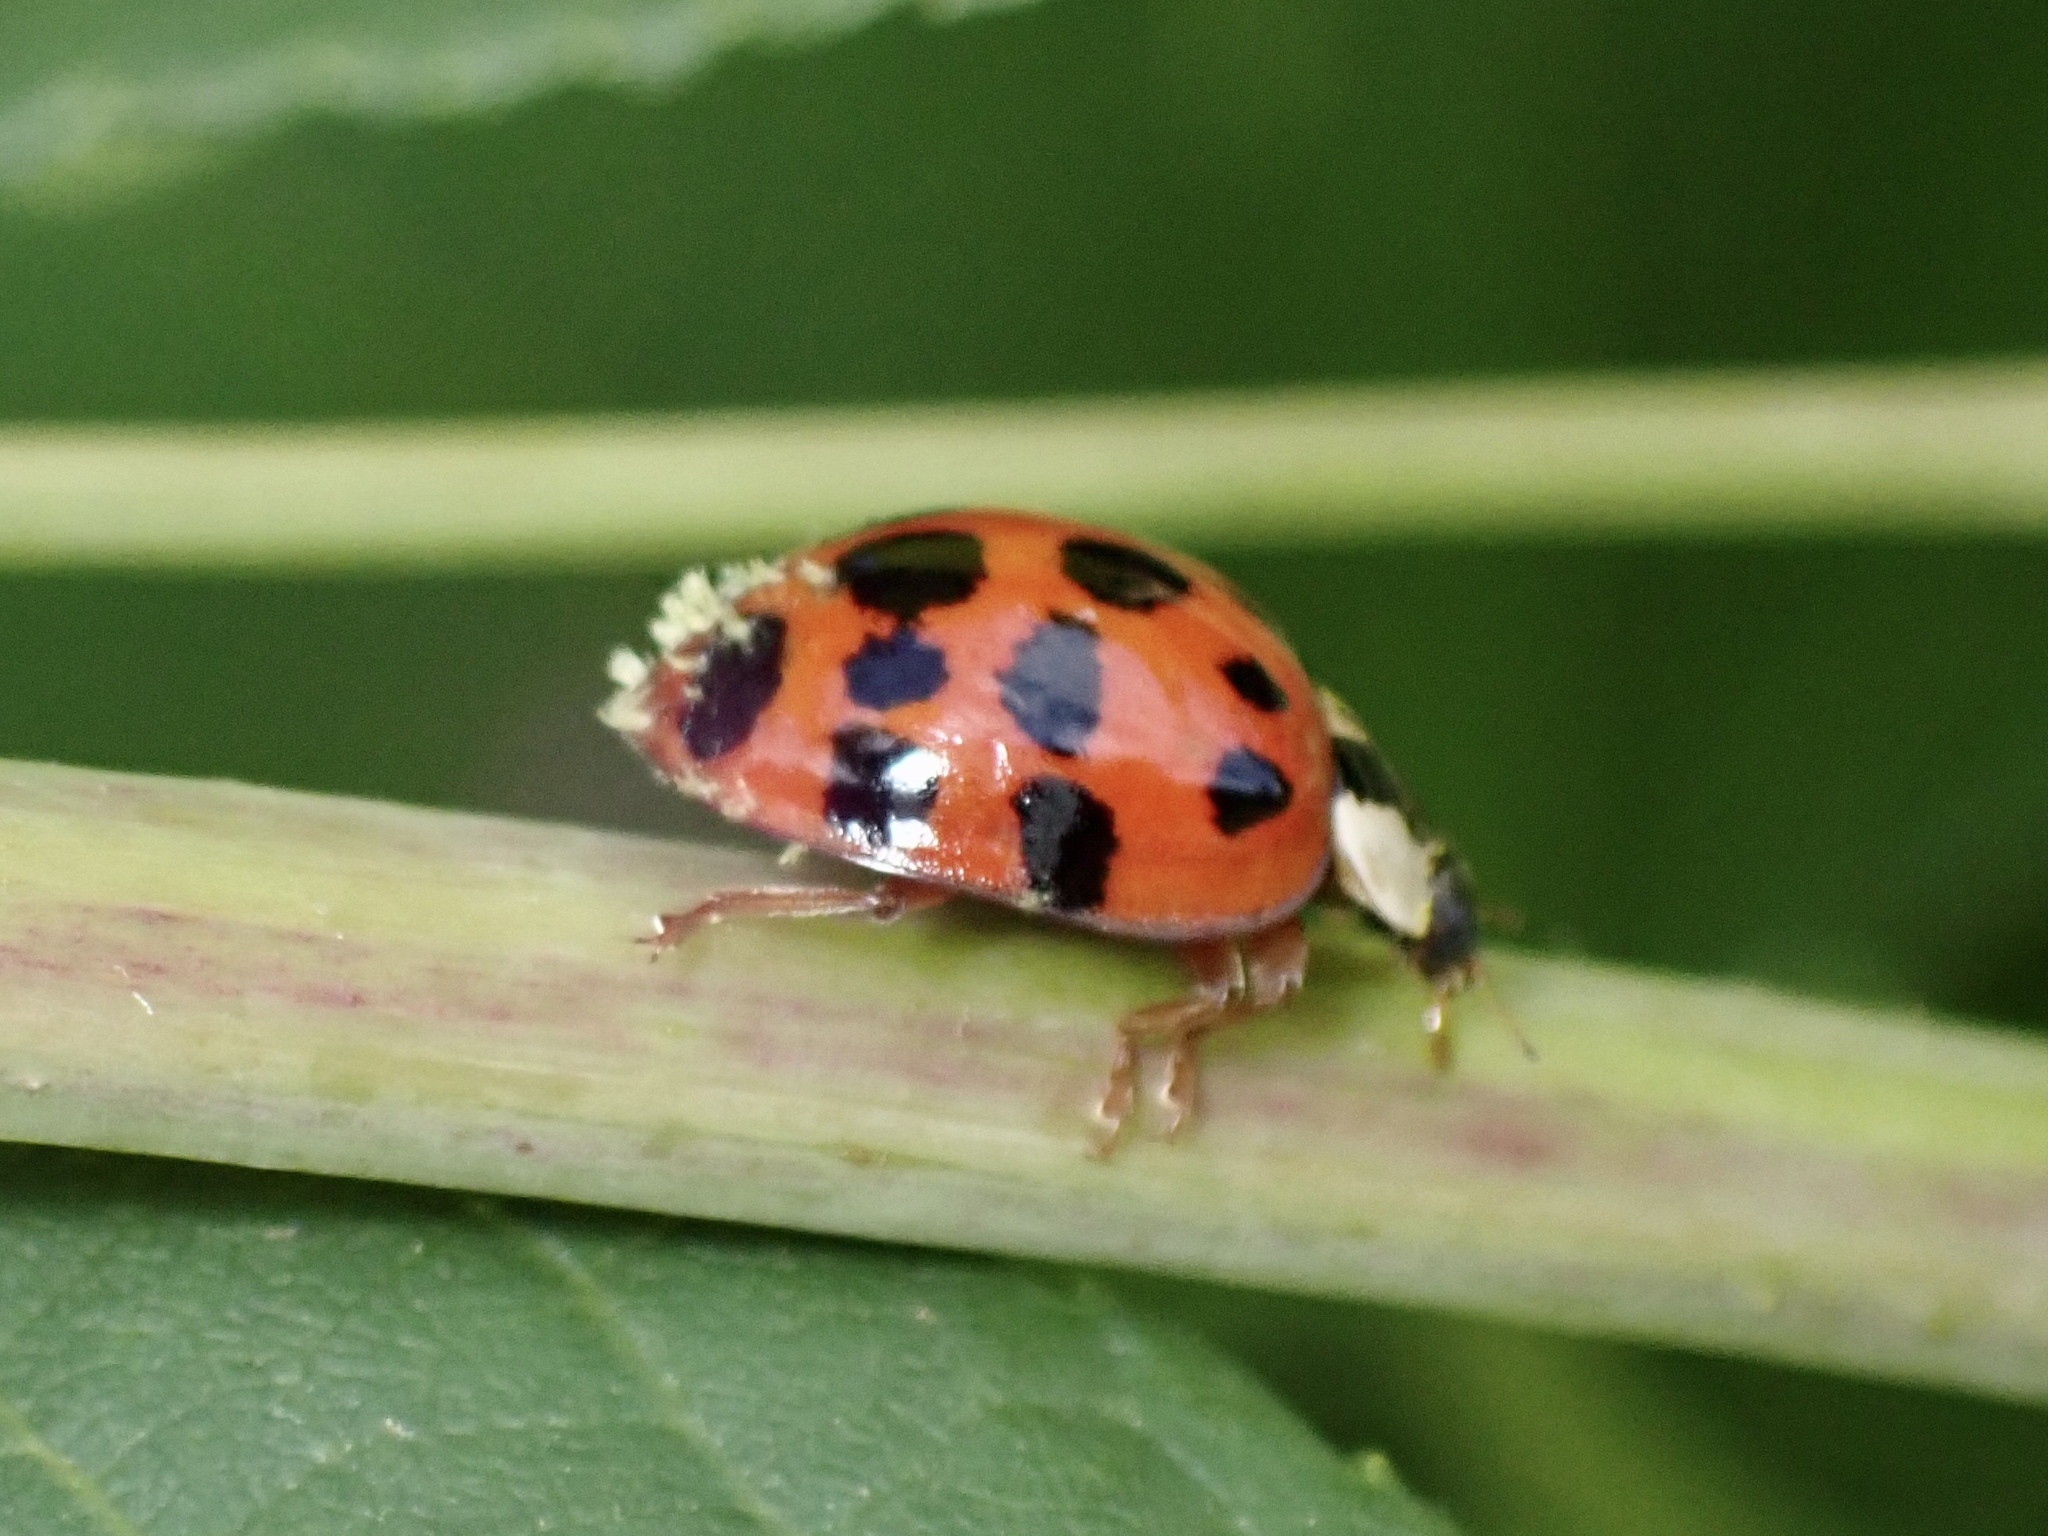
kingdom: Fungi
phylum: Ascomycota
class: Laboulbeniomycetes
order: Laboulbeniales
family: Laboulbeniaceae
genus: Hesperomyces
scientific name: Hesperomyces harmoniae
